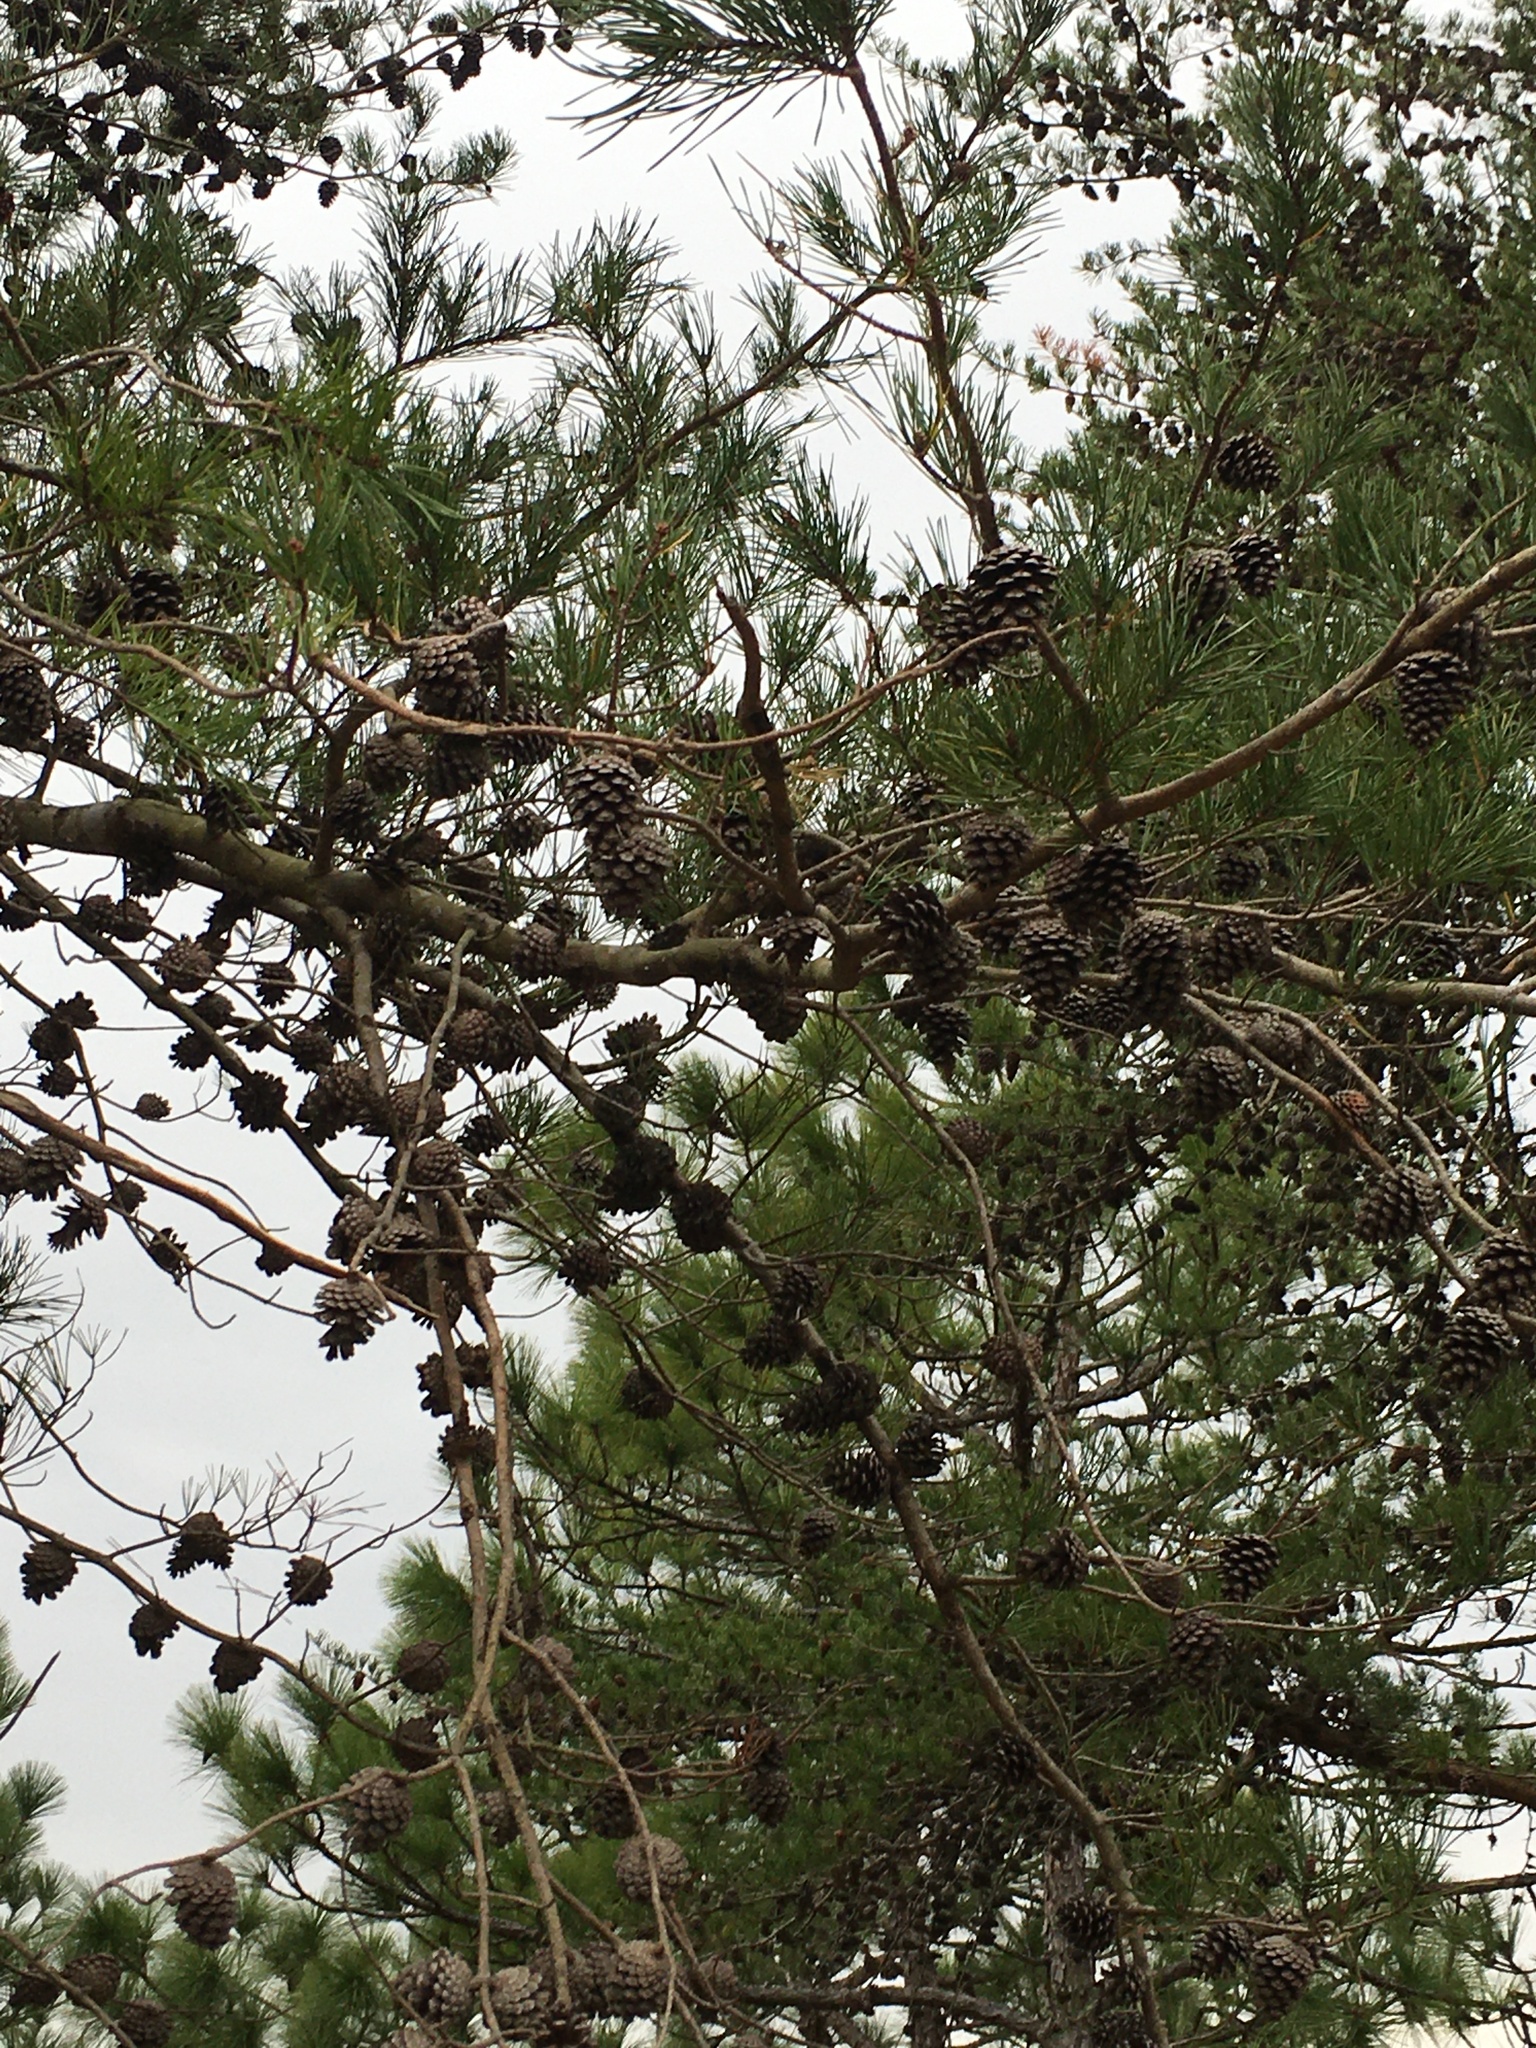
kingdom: Plantae
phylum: Tracheophyta
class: Pinopsida
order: Pinales
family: Pinaceae
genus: Pinus
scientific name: Pinus virginiana
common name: Scrub pine
